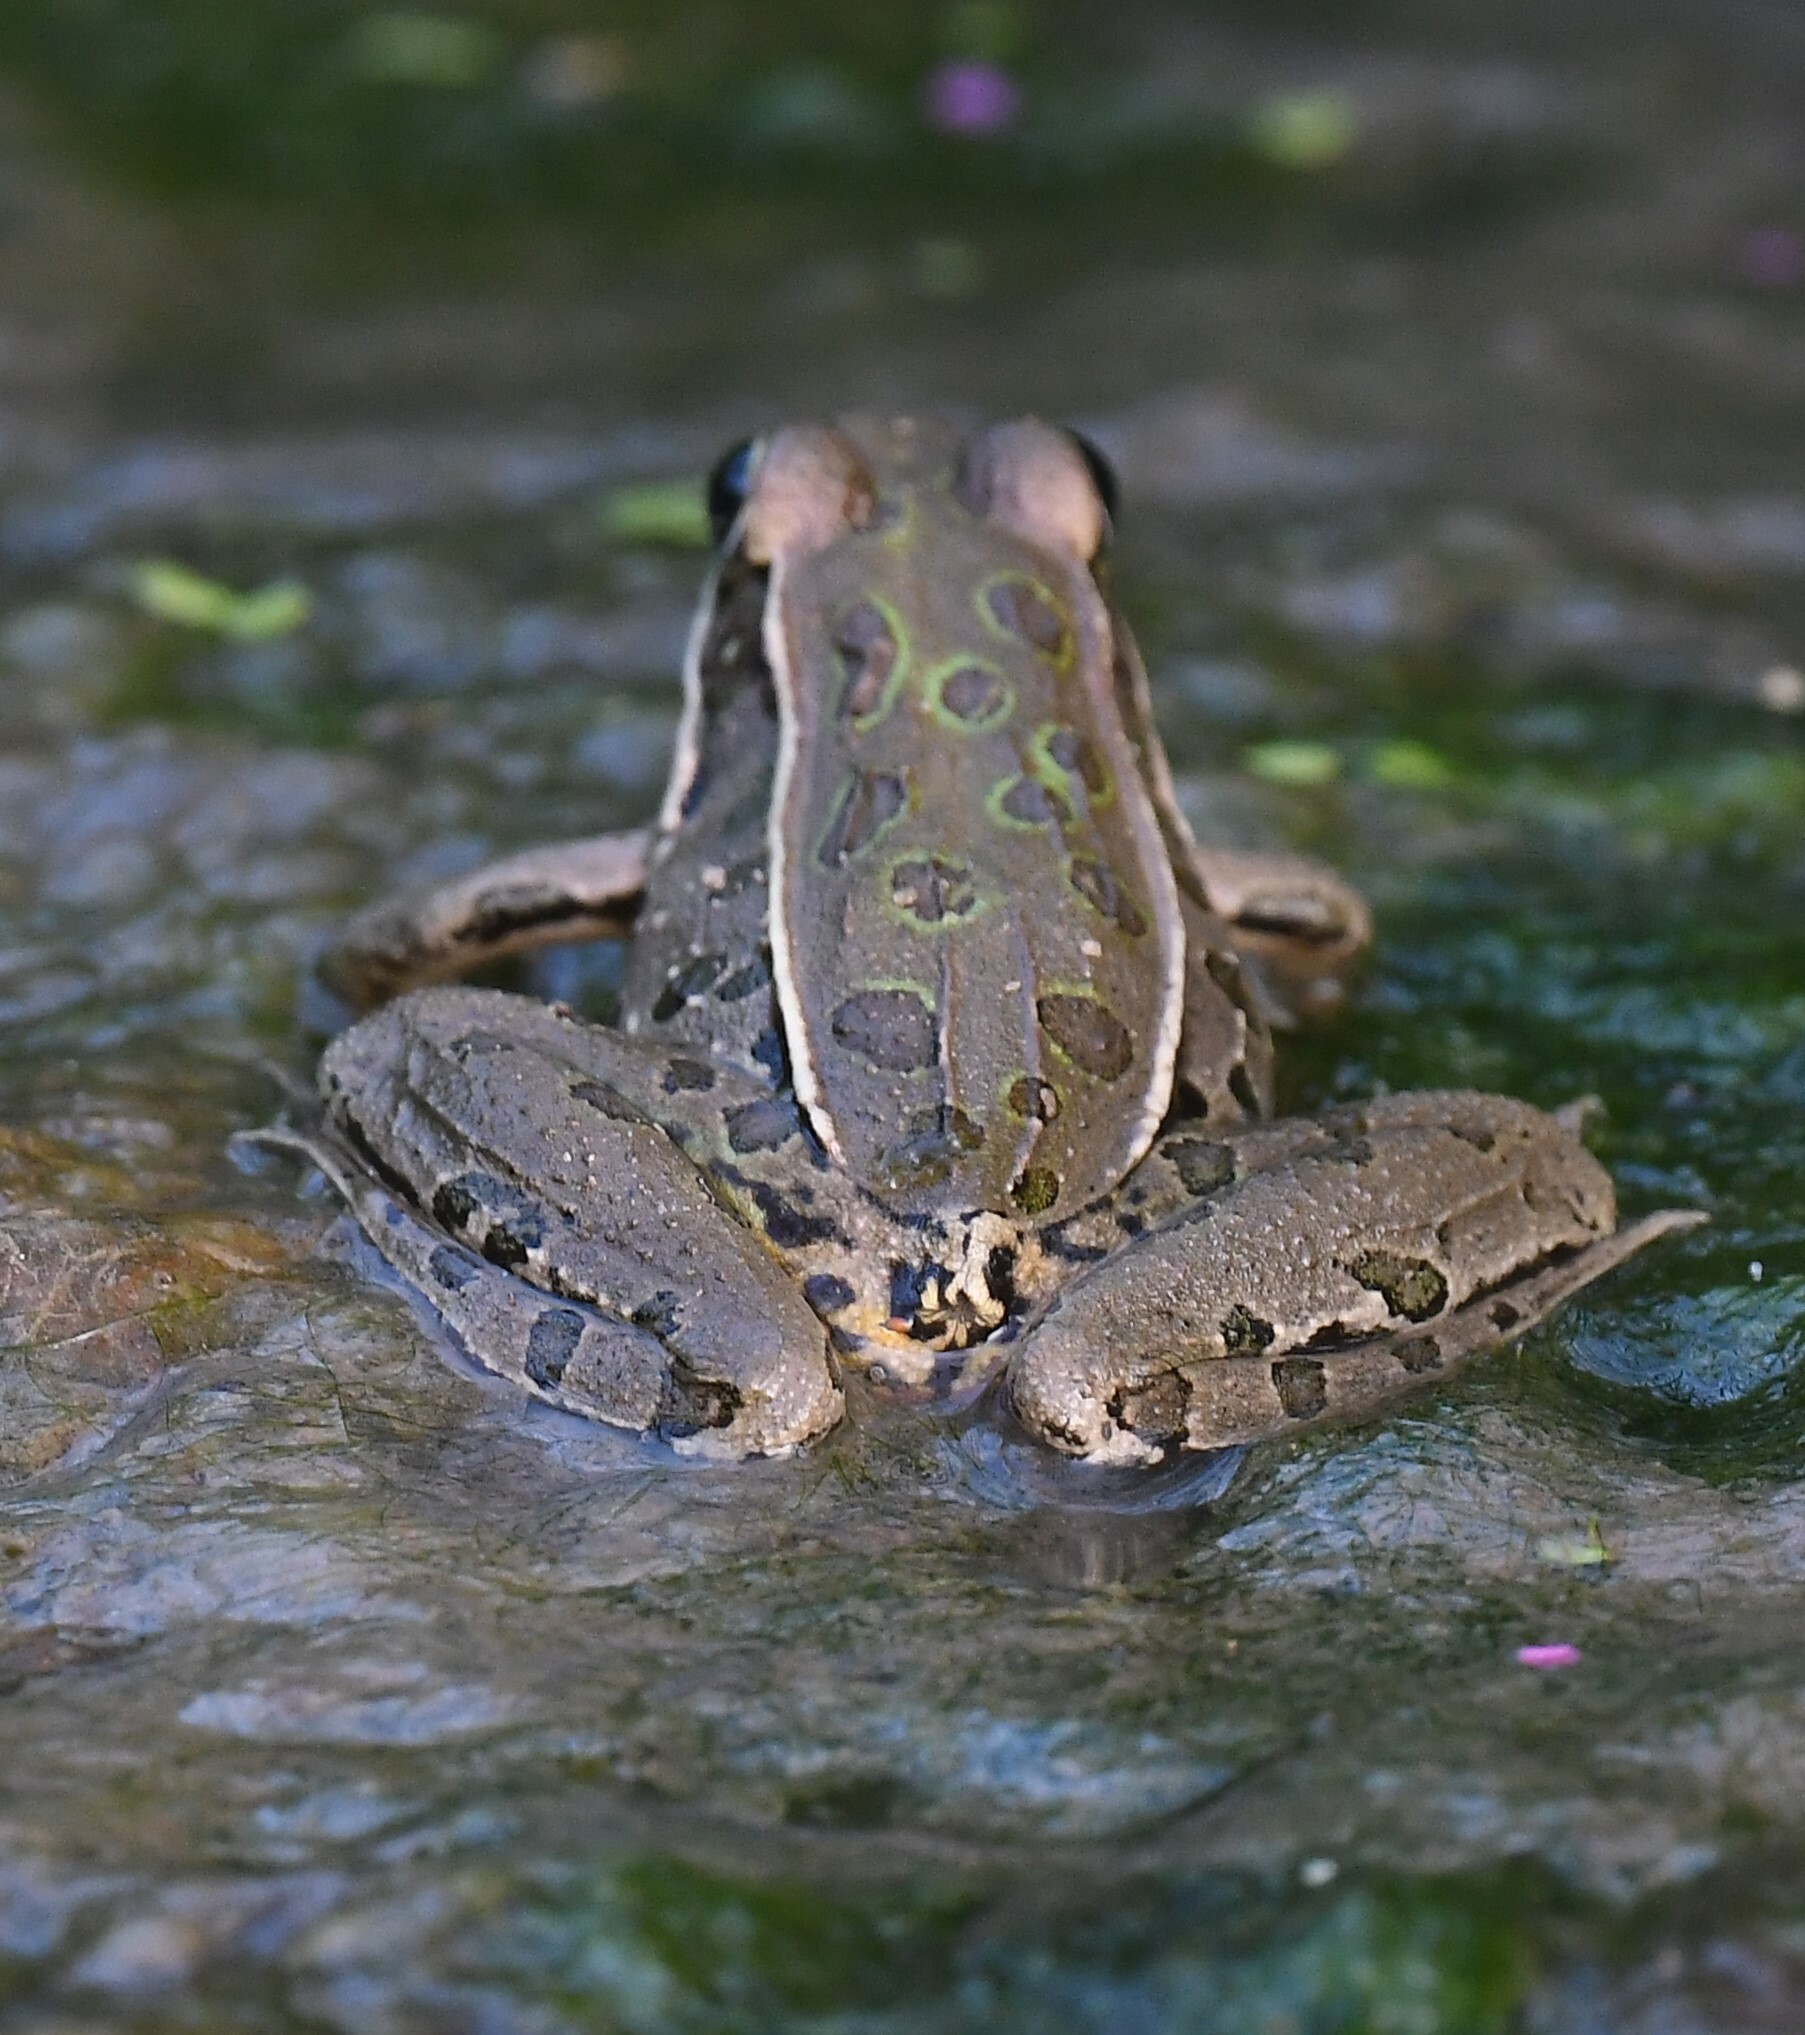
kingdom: Animalia
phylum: Chordata
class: Amphibia
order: Anura
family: Ranidae
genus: Lithobates
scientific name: Lithobates sphenocephalus
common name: Southern leopard frog
